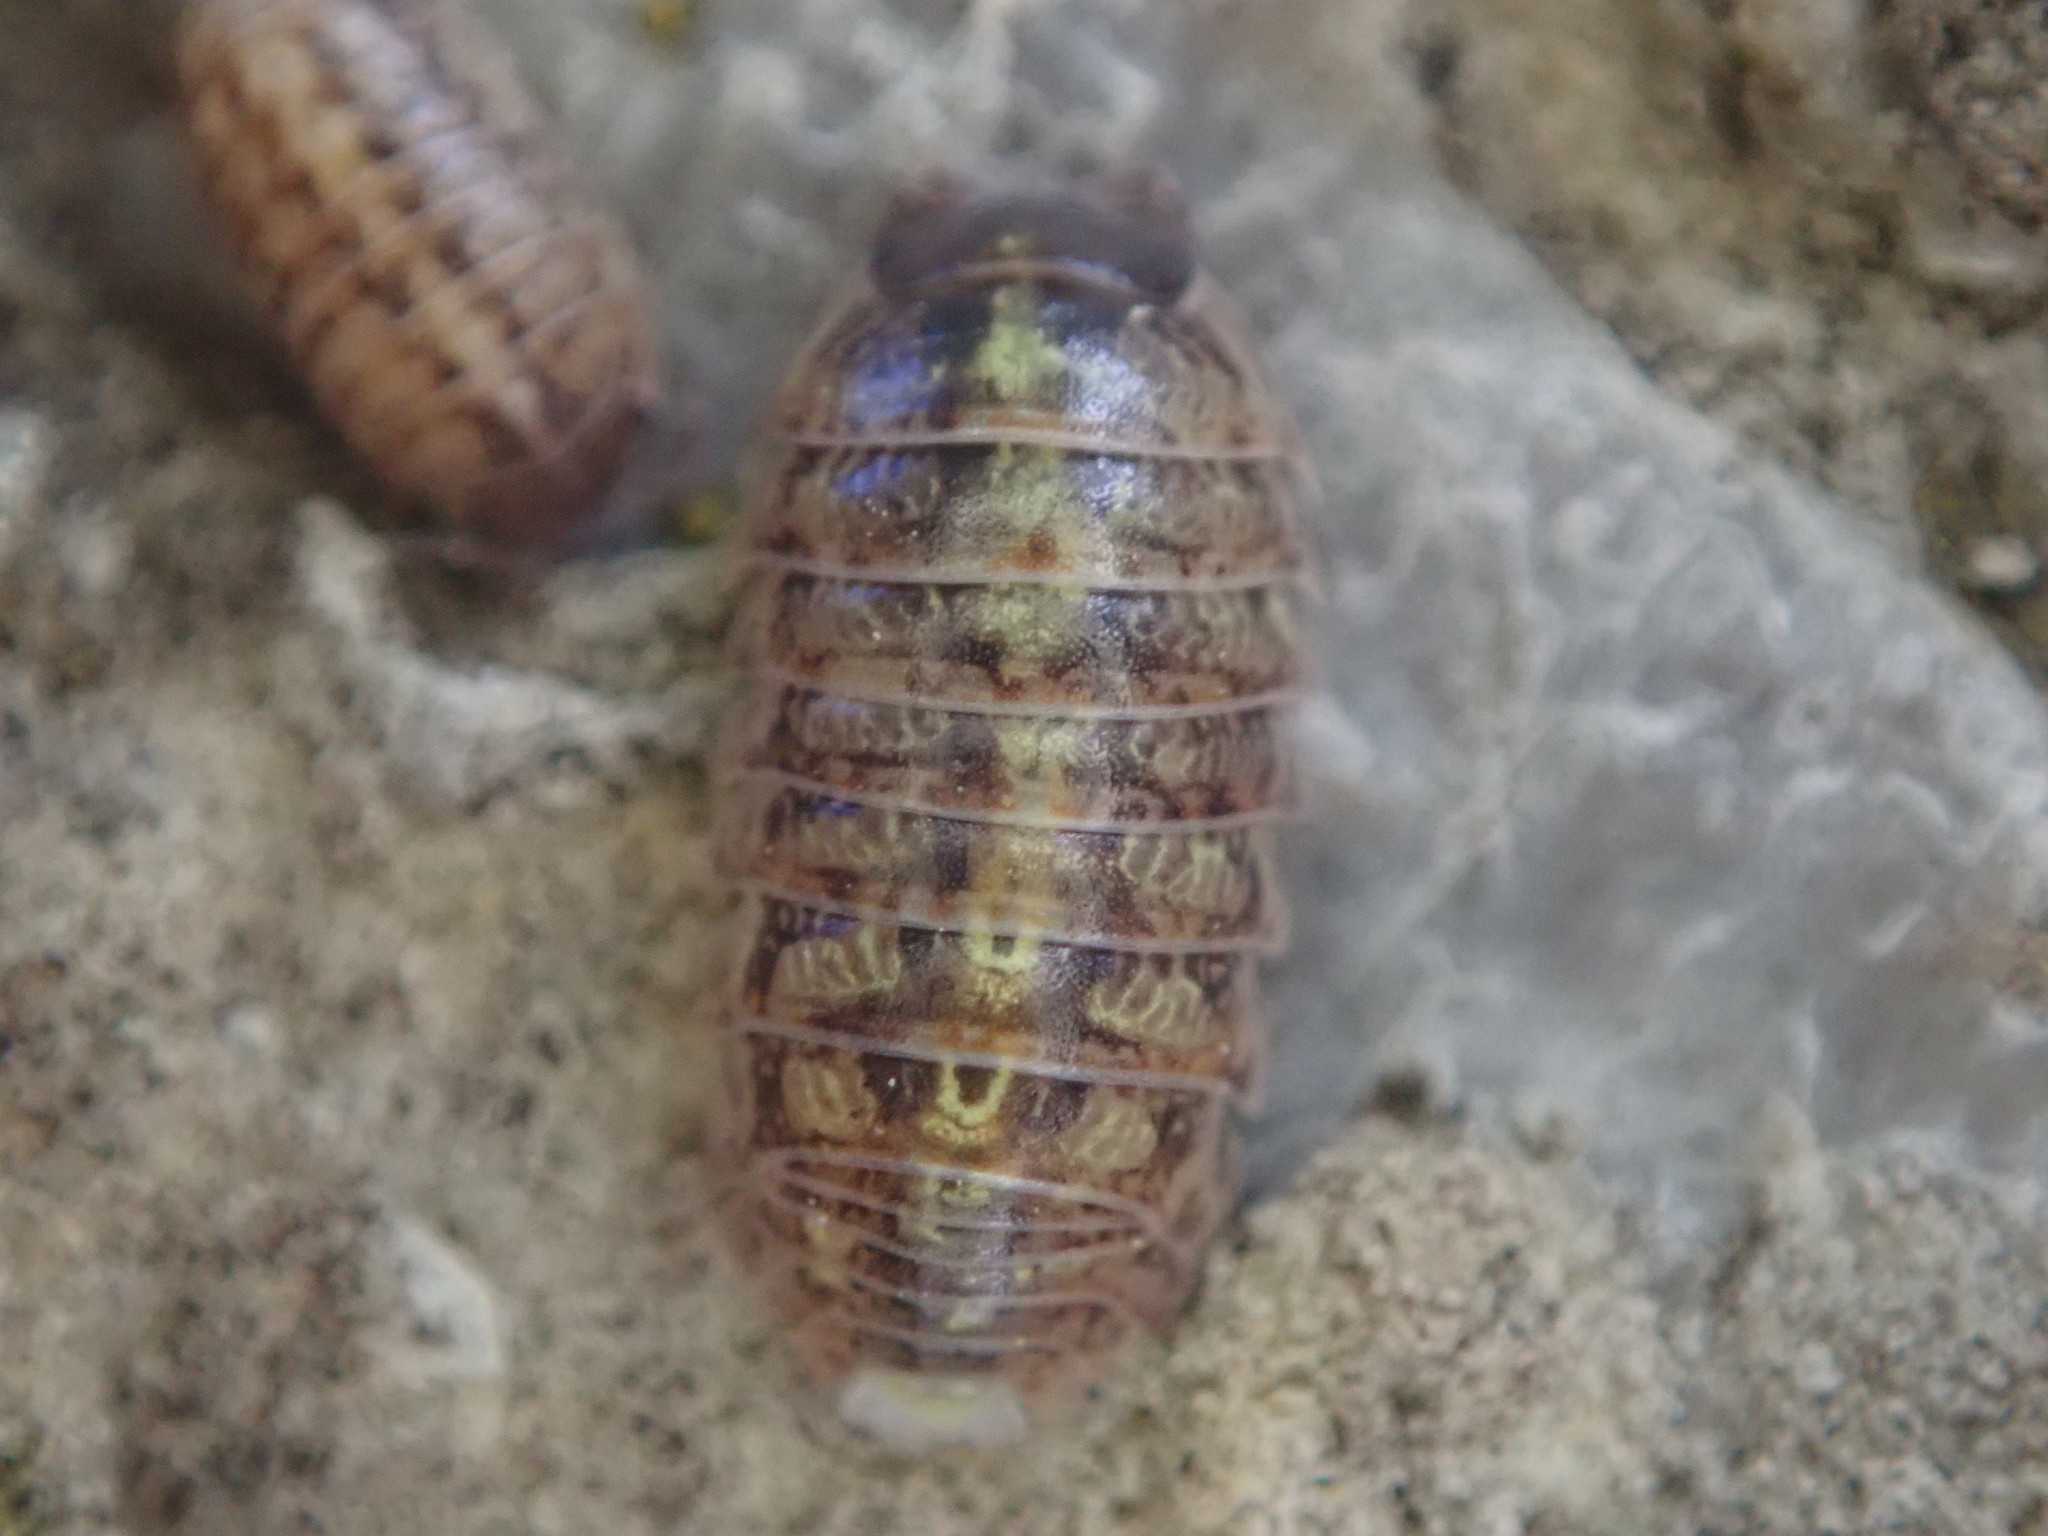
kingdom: Animalia
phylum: Arthropoda
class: Malacostraca
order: Isopoda
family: Armadillidiidae
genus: Armadillidium
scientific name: Armadillidium vulgare
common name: Common pill woodlouse
